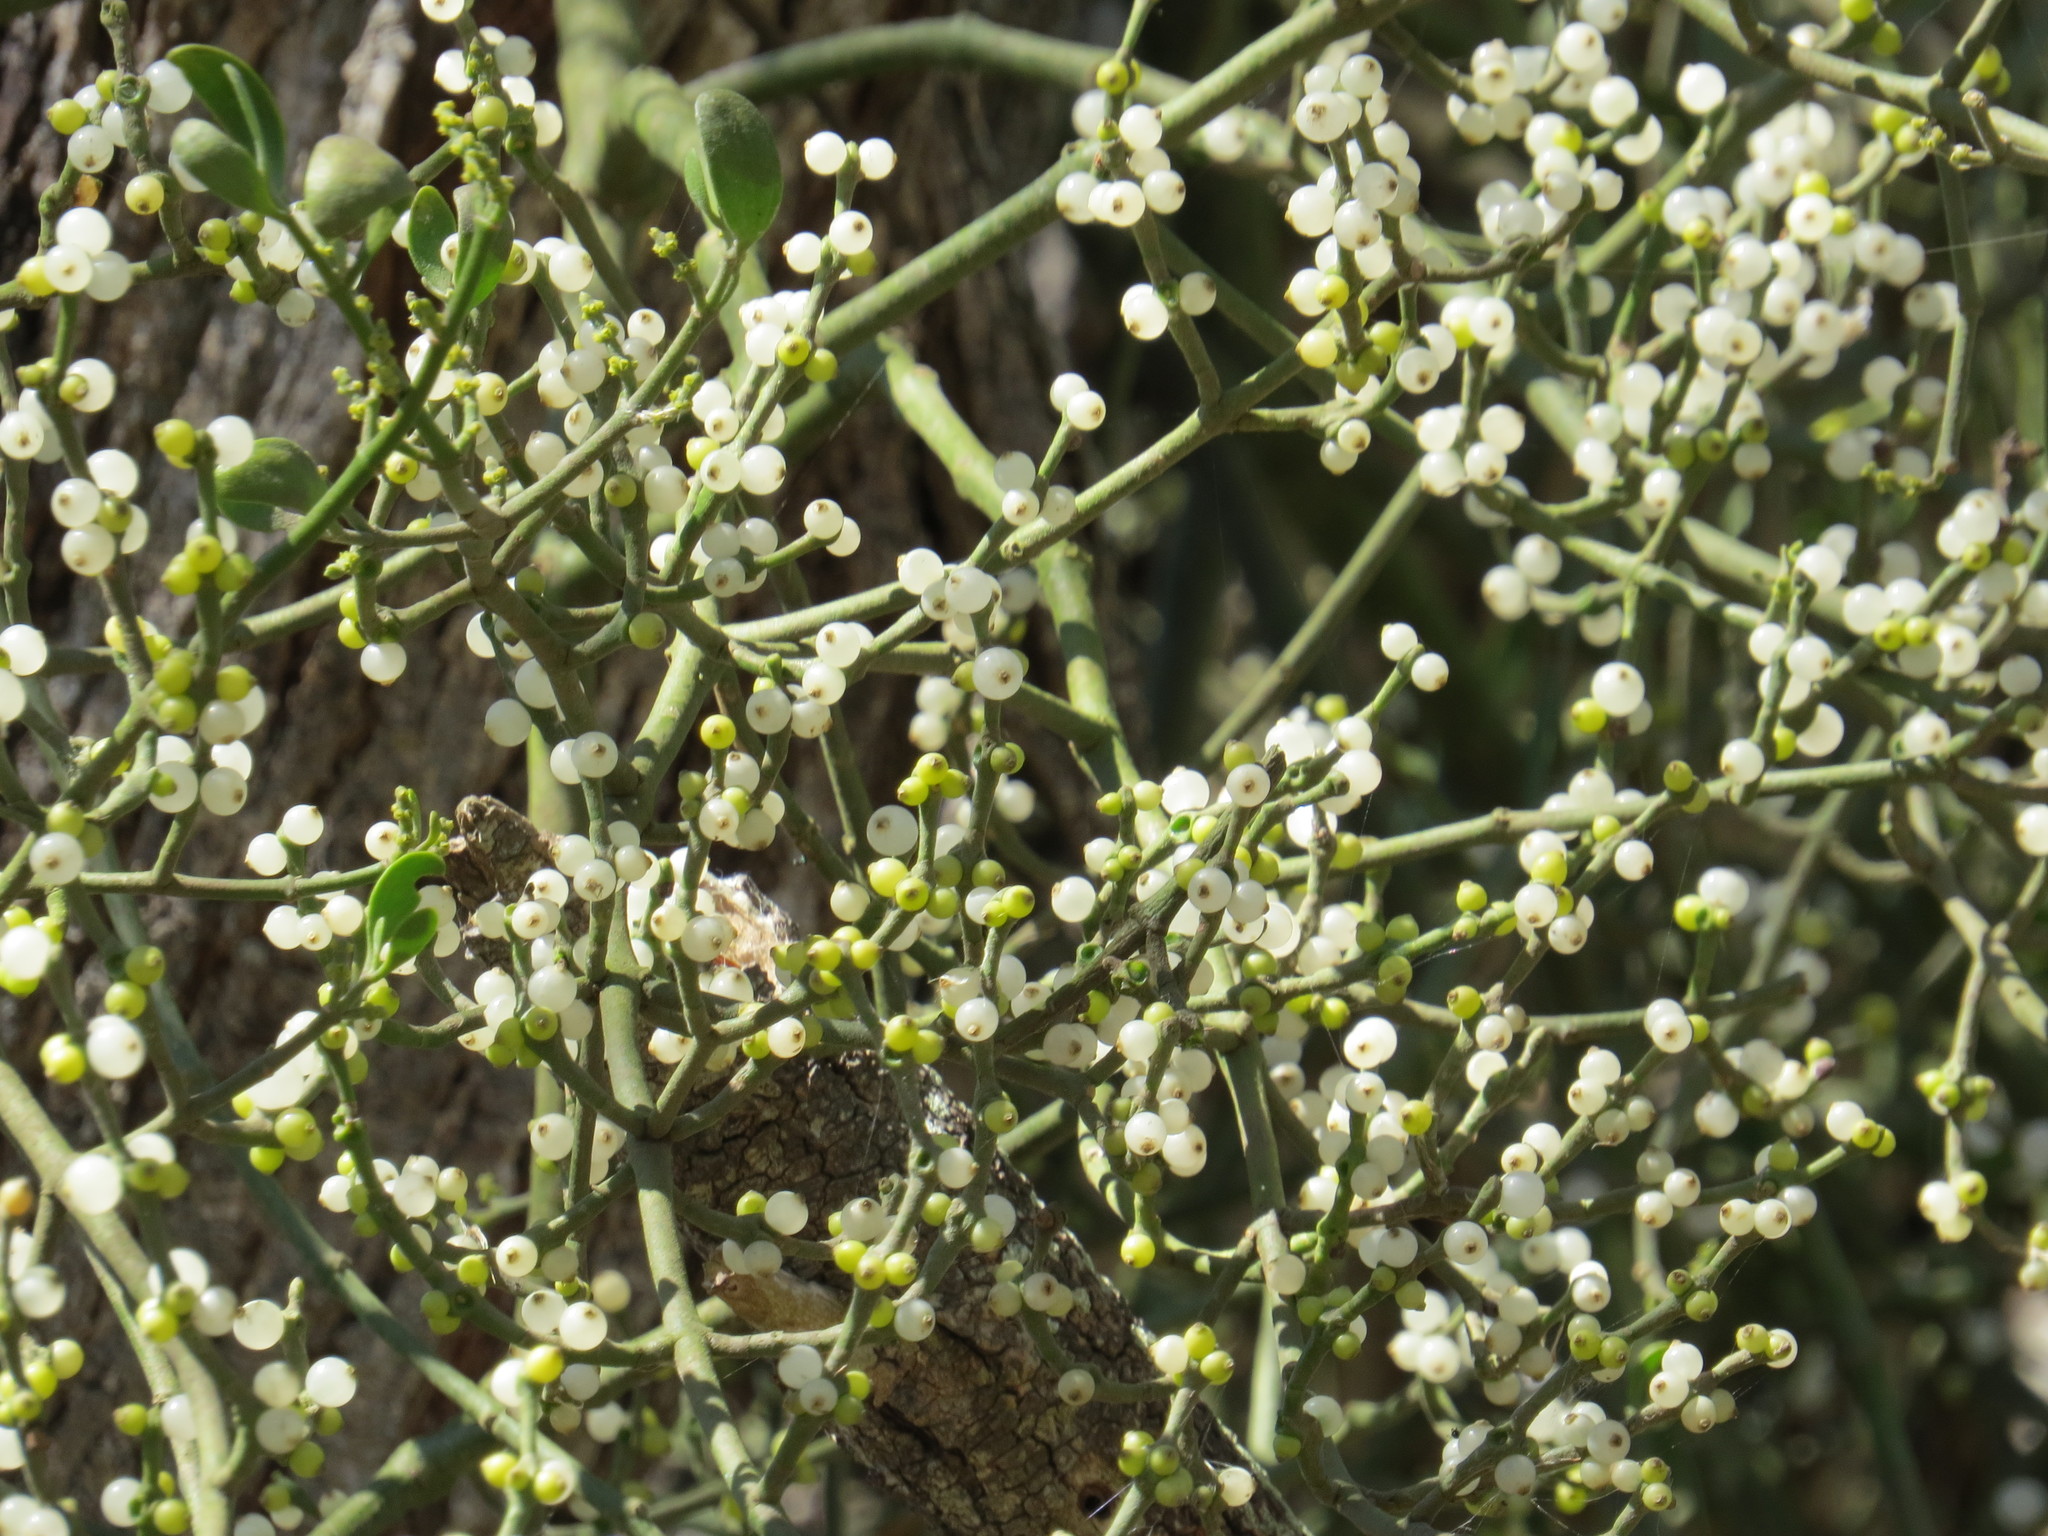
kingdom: Plantae
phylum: Tracheophyta
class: Magnoliopsida
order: Santalales
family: Viscaceae
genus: Phoradendron
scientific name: Phoradendron leucarpum
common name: Pacific mistletoe
